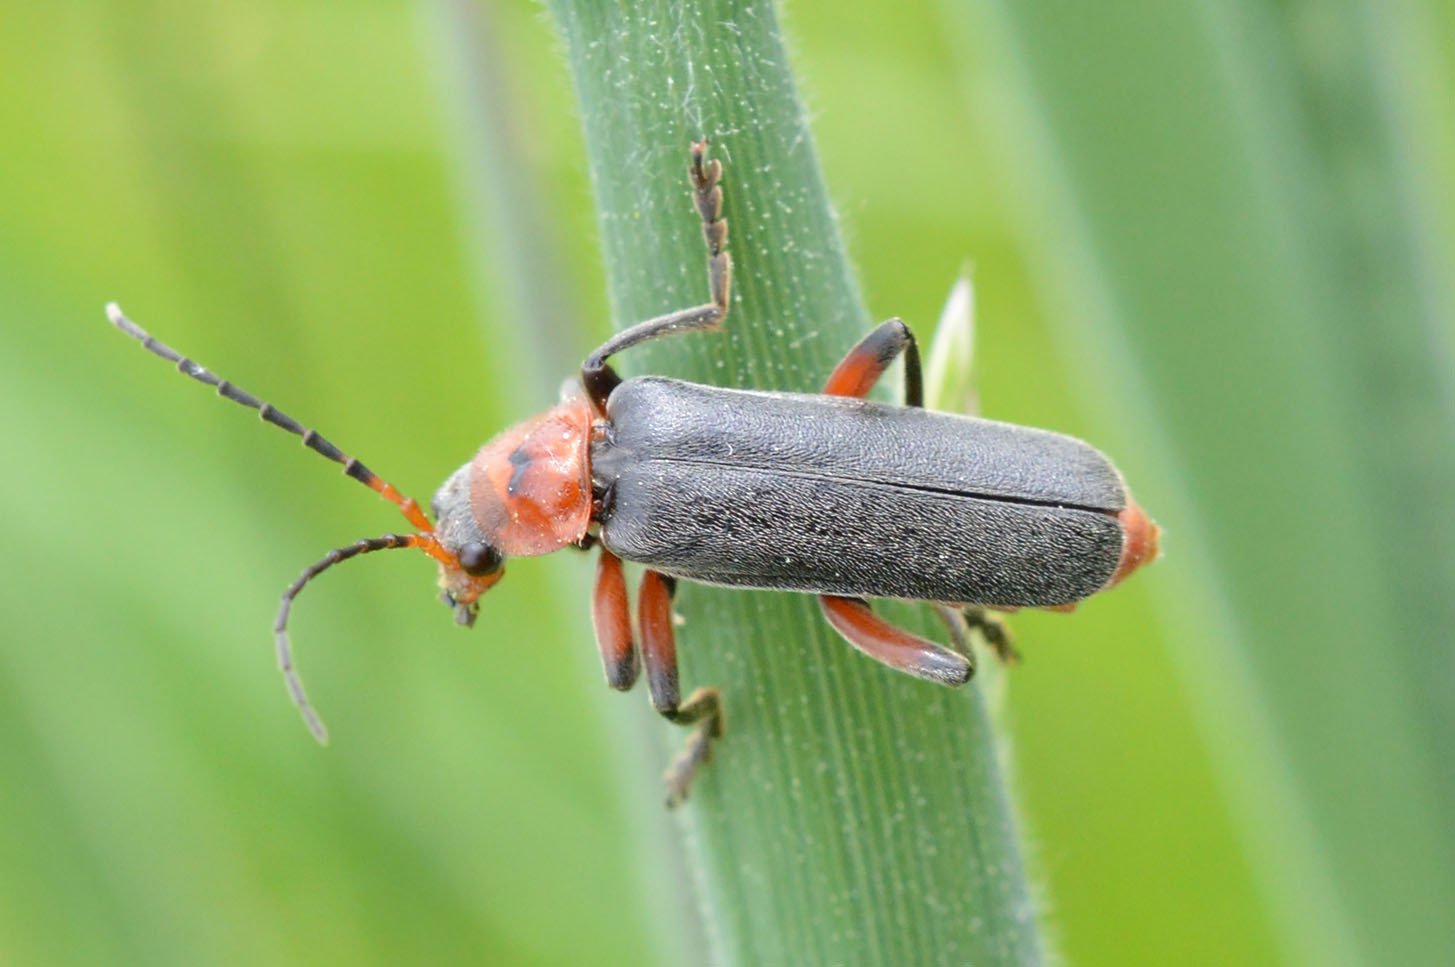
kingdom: Animalia
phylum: Arthropoda
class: Insecta
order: Coleoptera
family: Cantharidae
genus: Cantharis
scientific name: Cantharis rustica
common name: Soldier beetle
